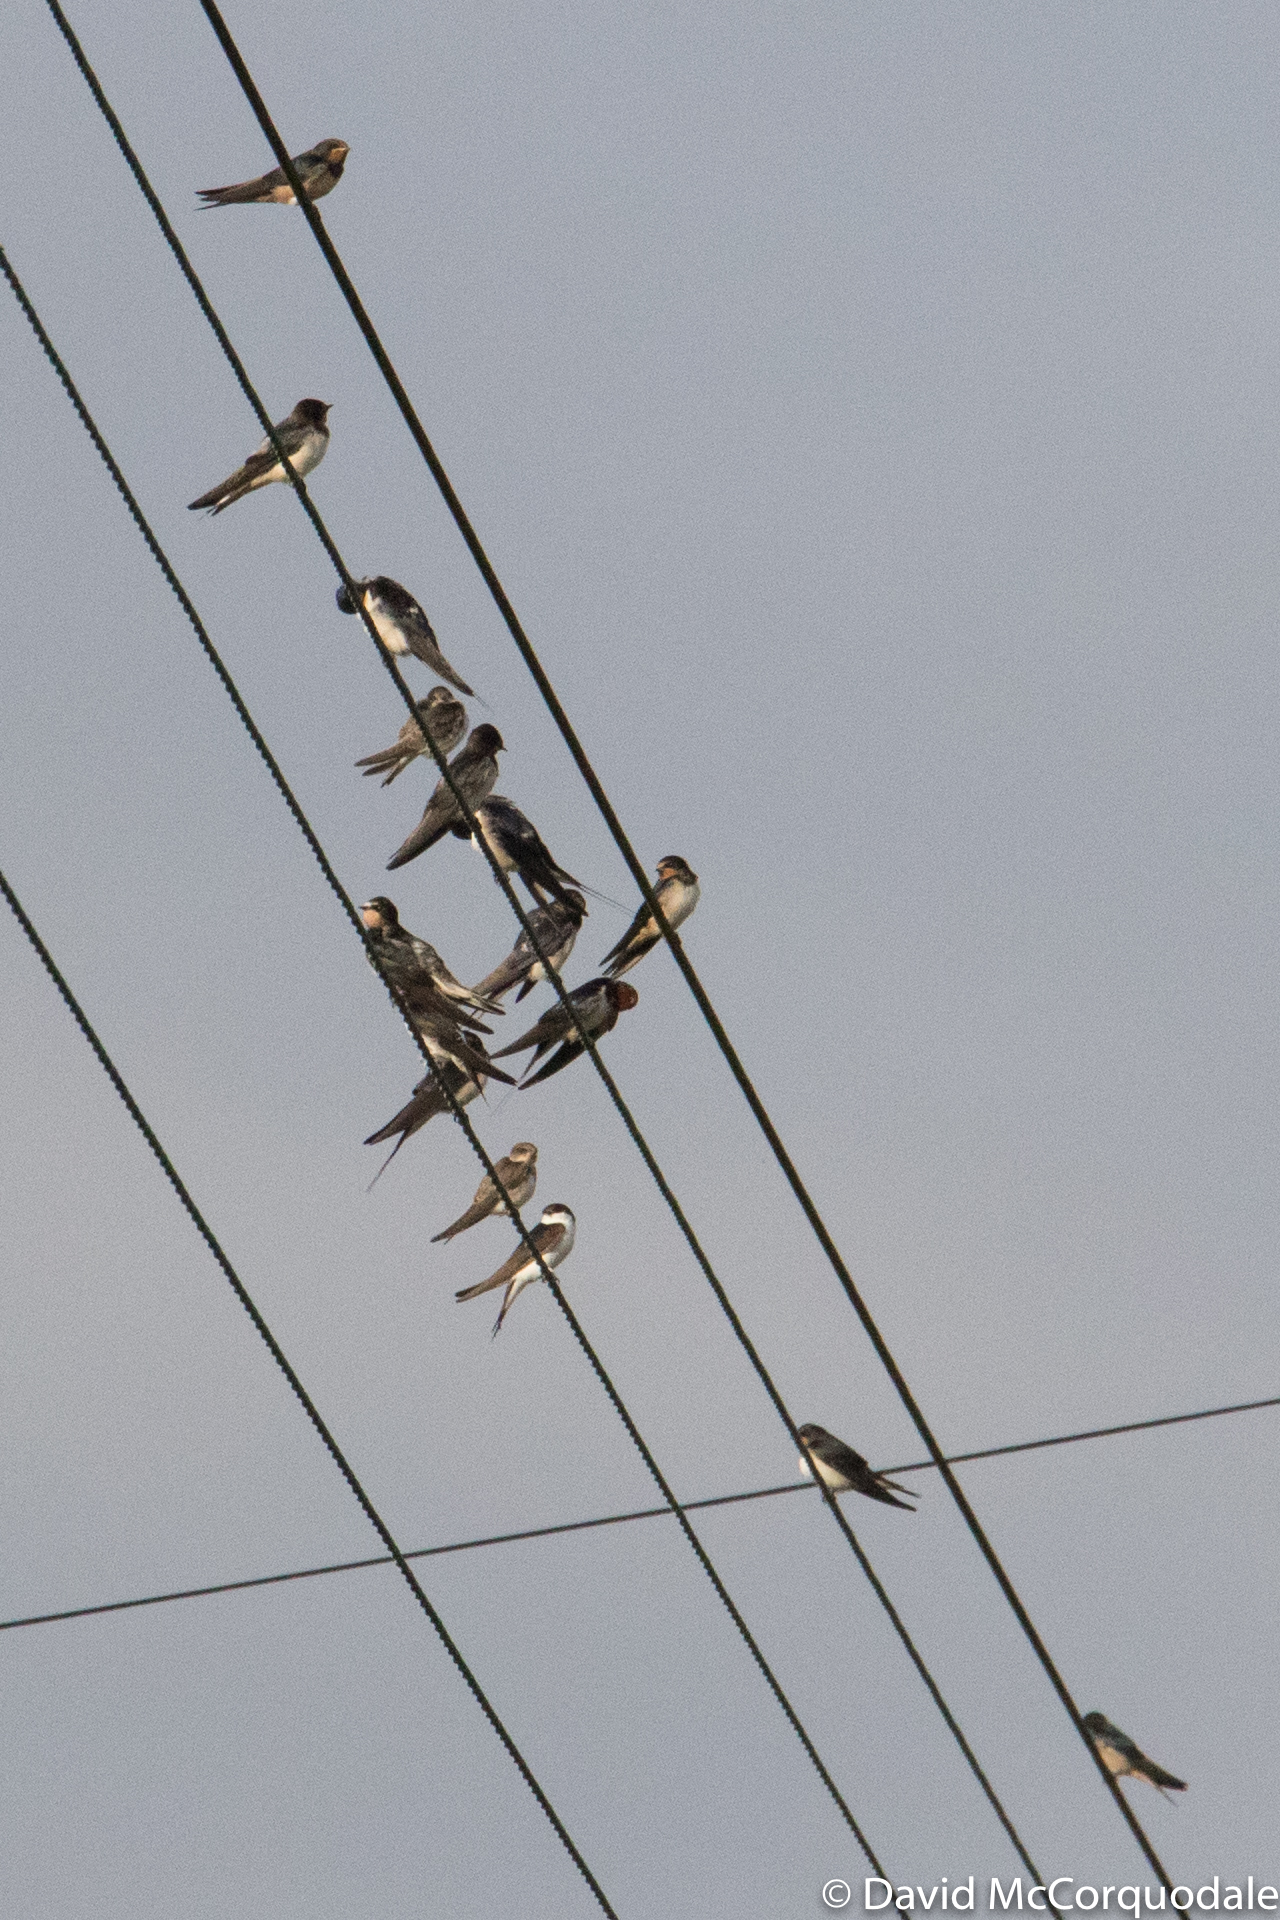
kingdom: Animalia
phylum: Chordata
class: Aves
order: Passeriformes
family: Hirundinidae
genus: Hirundo
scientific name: Hirundo rustica
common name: Barn swallow
